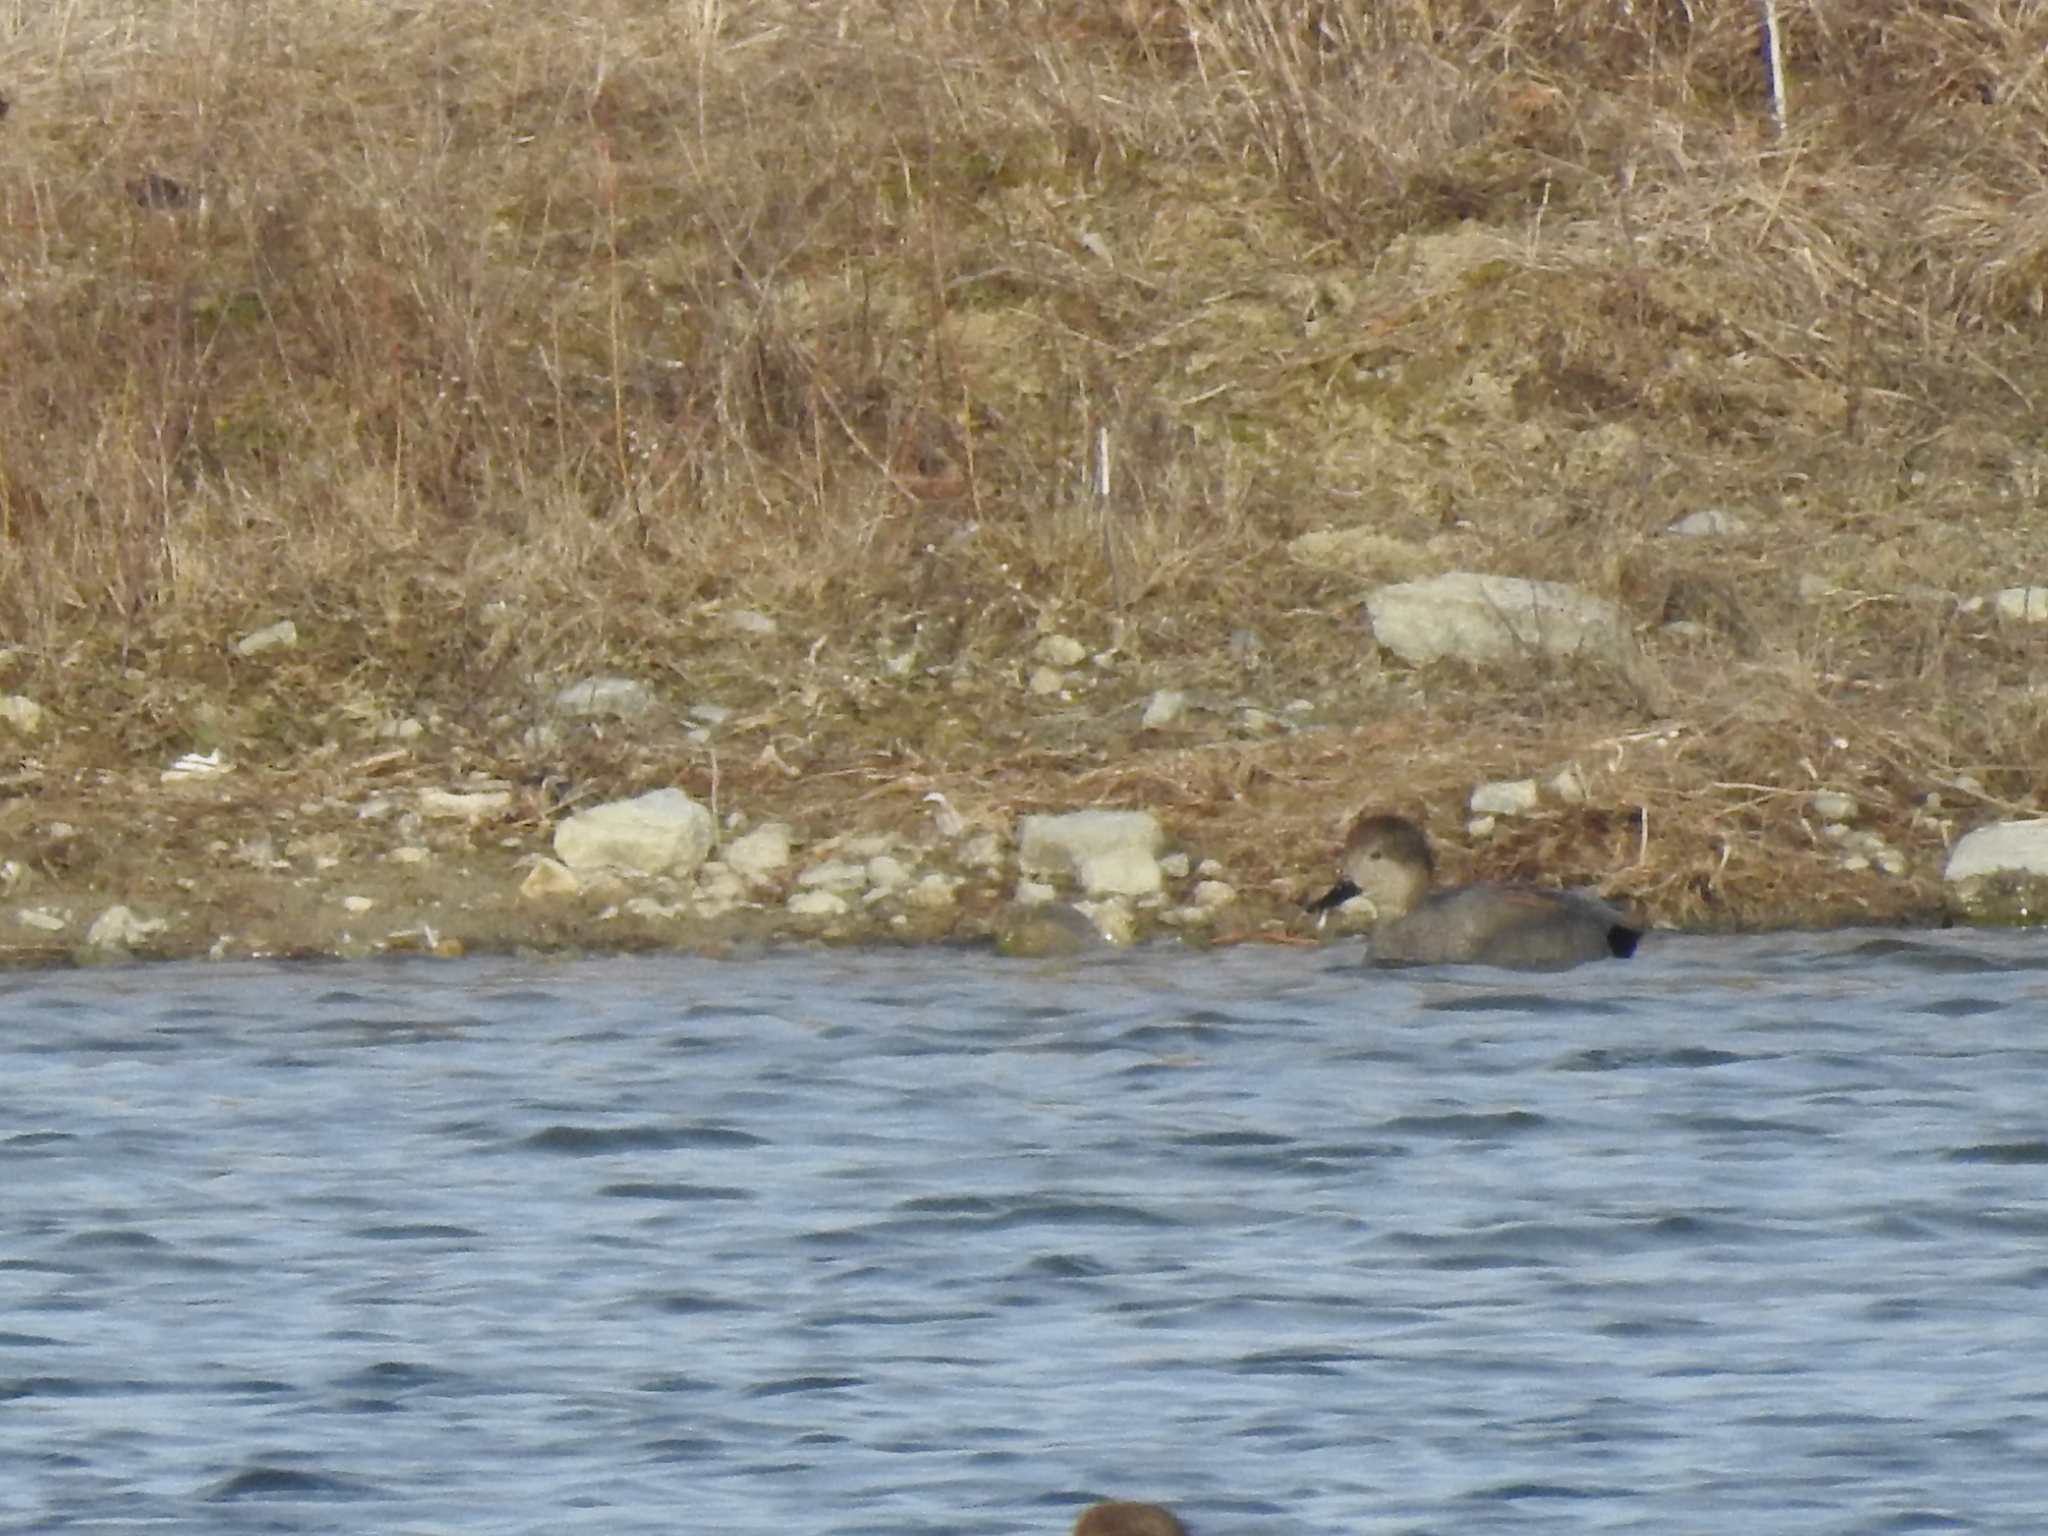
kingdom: Animalia
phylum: Chordata
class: Aves
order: Anseriformes
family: Anatidae
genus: Mareca
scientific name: Mareca strepera
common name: Gadwall
